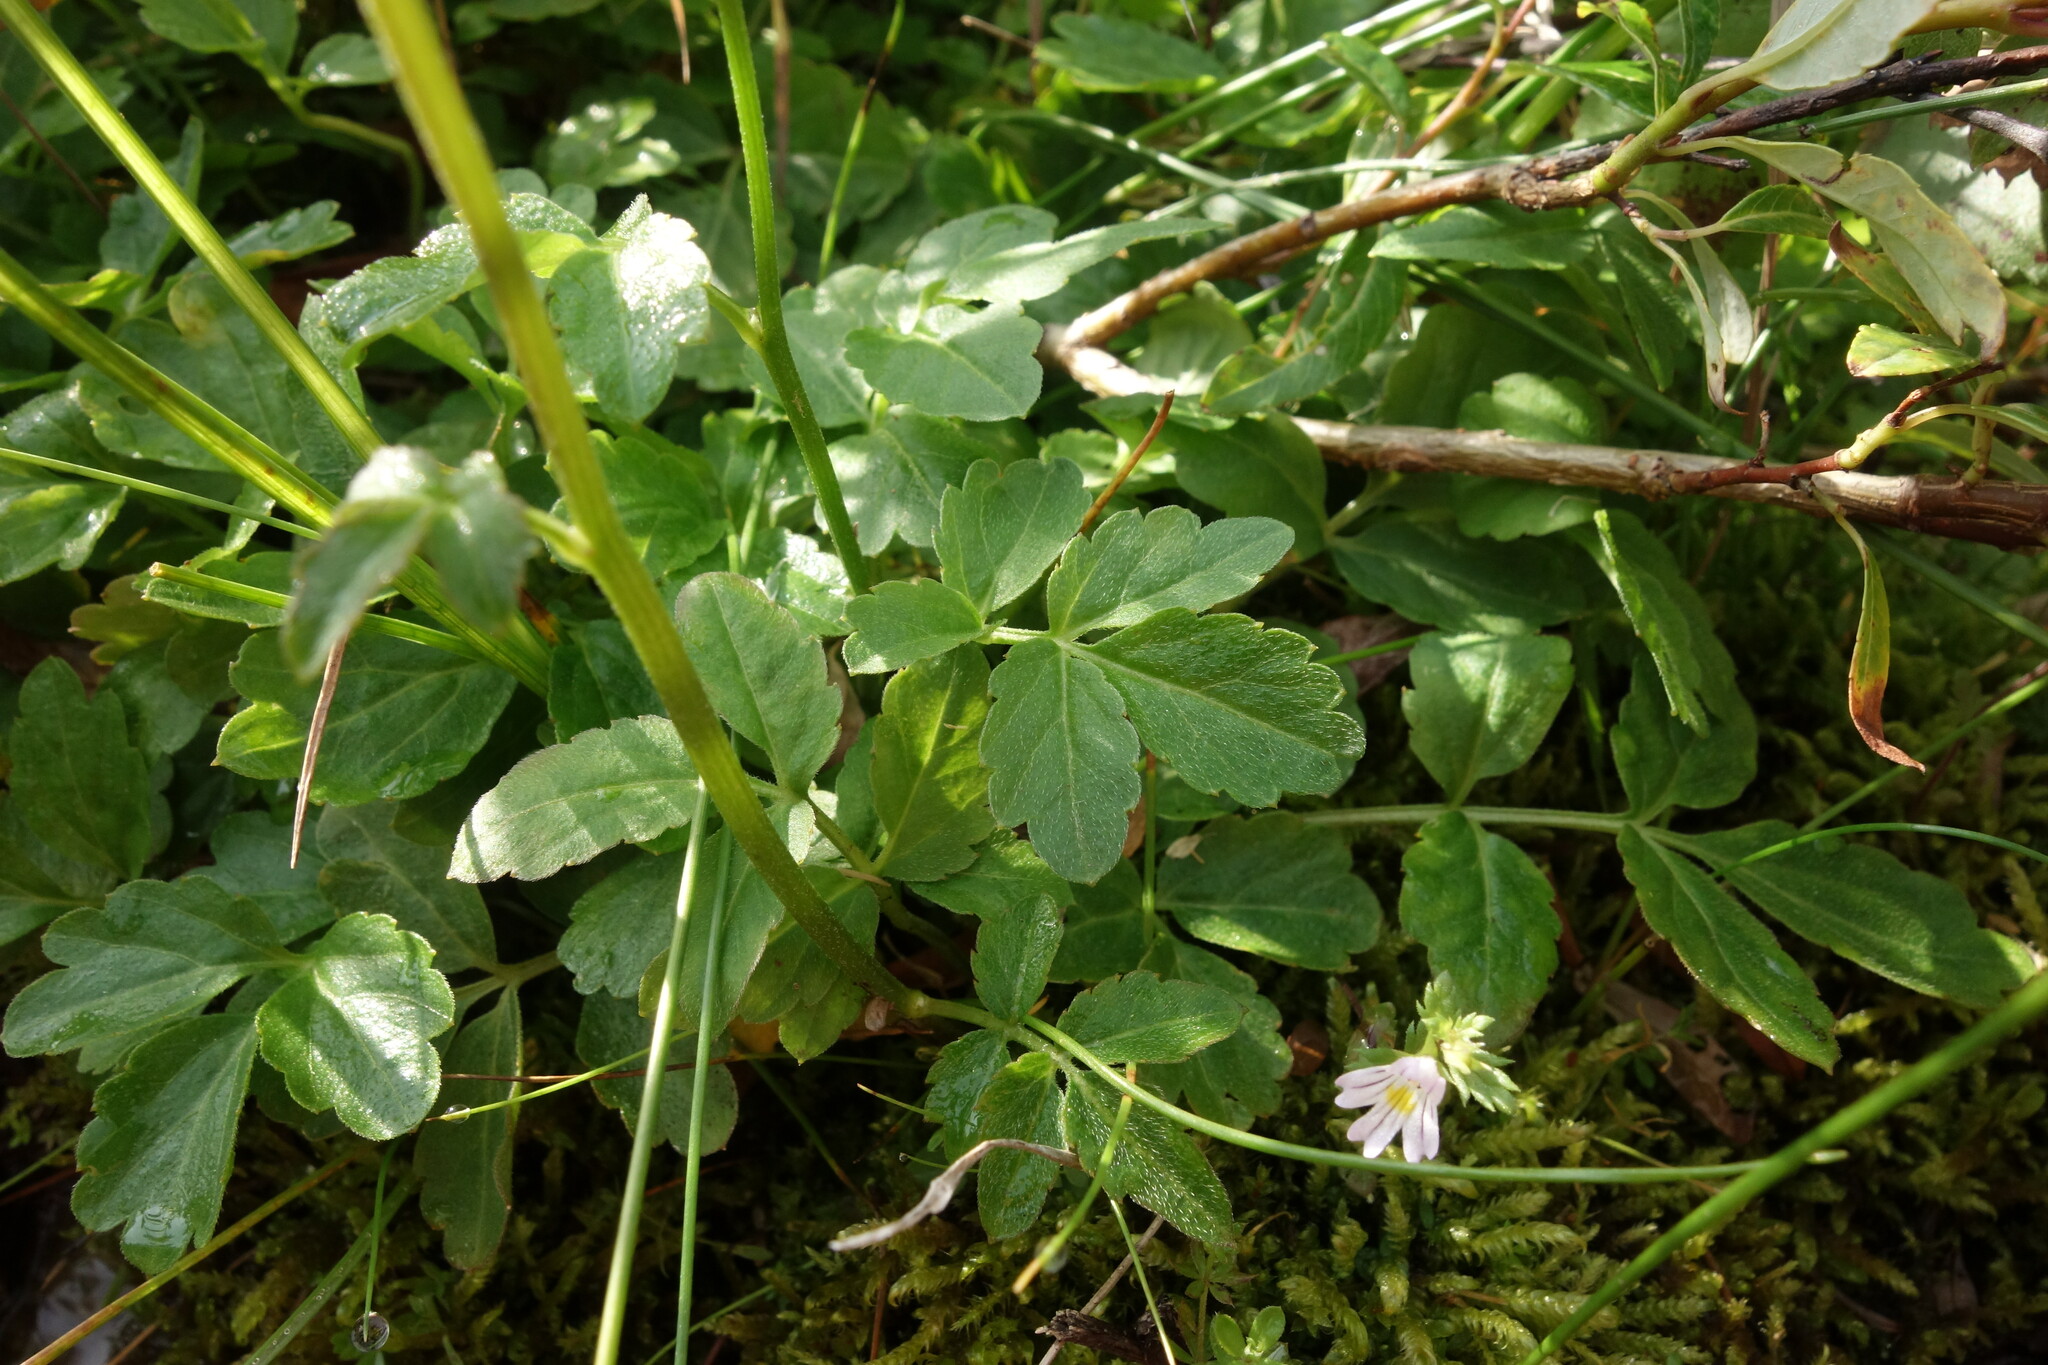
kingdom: Plantae
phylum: Tracheophyta
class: Magnoliopsida
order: Brassicales
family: Brassicaceae
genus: Cardamine
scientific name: Cardamine macrophylla
